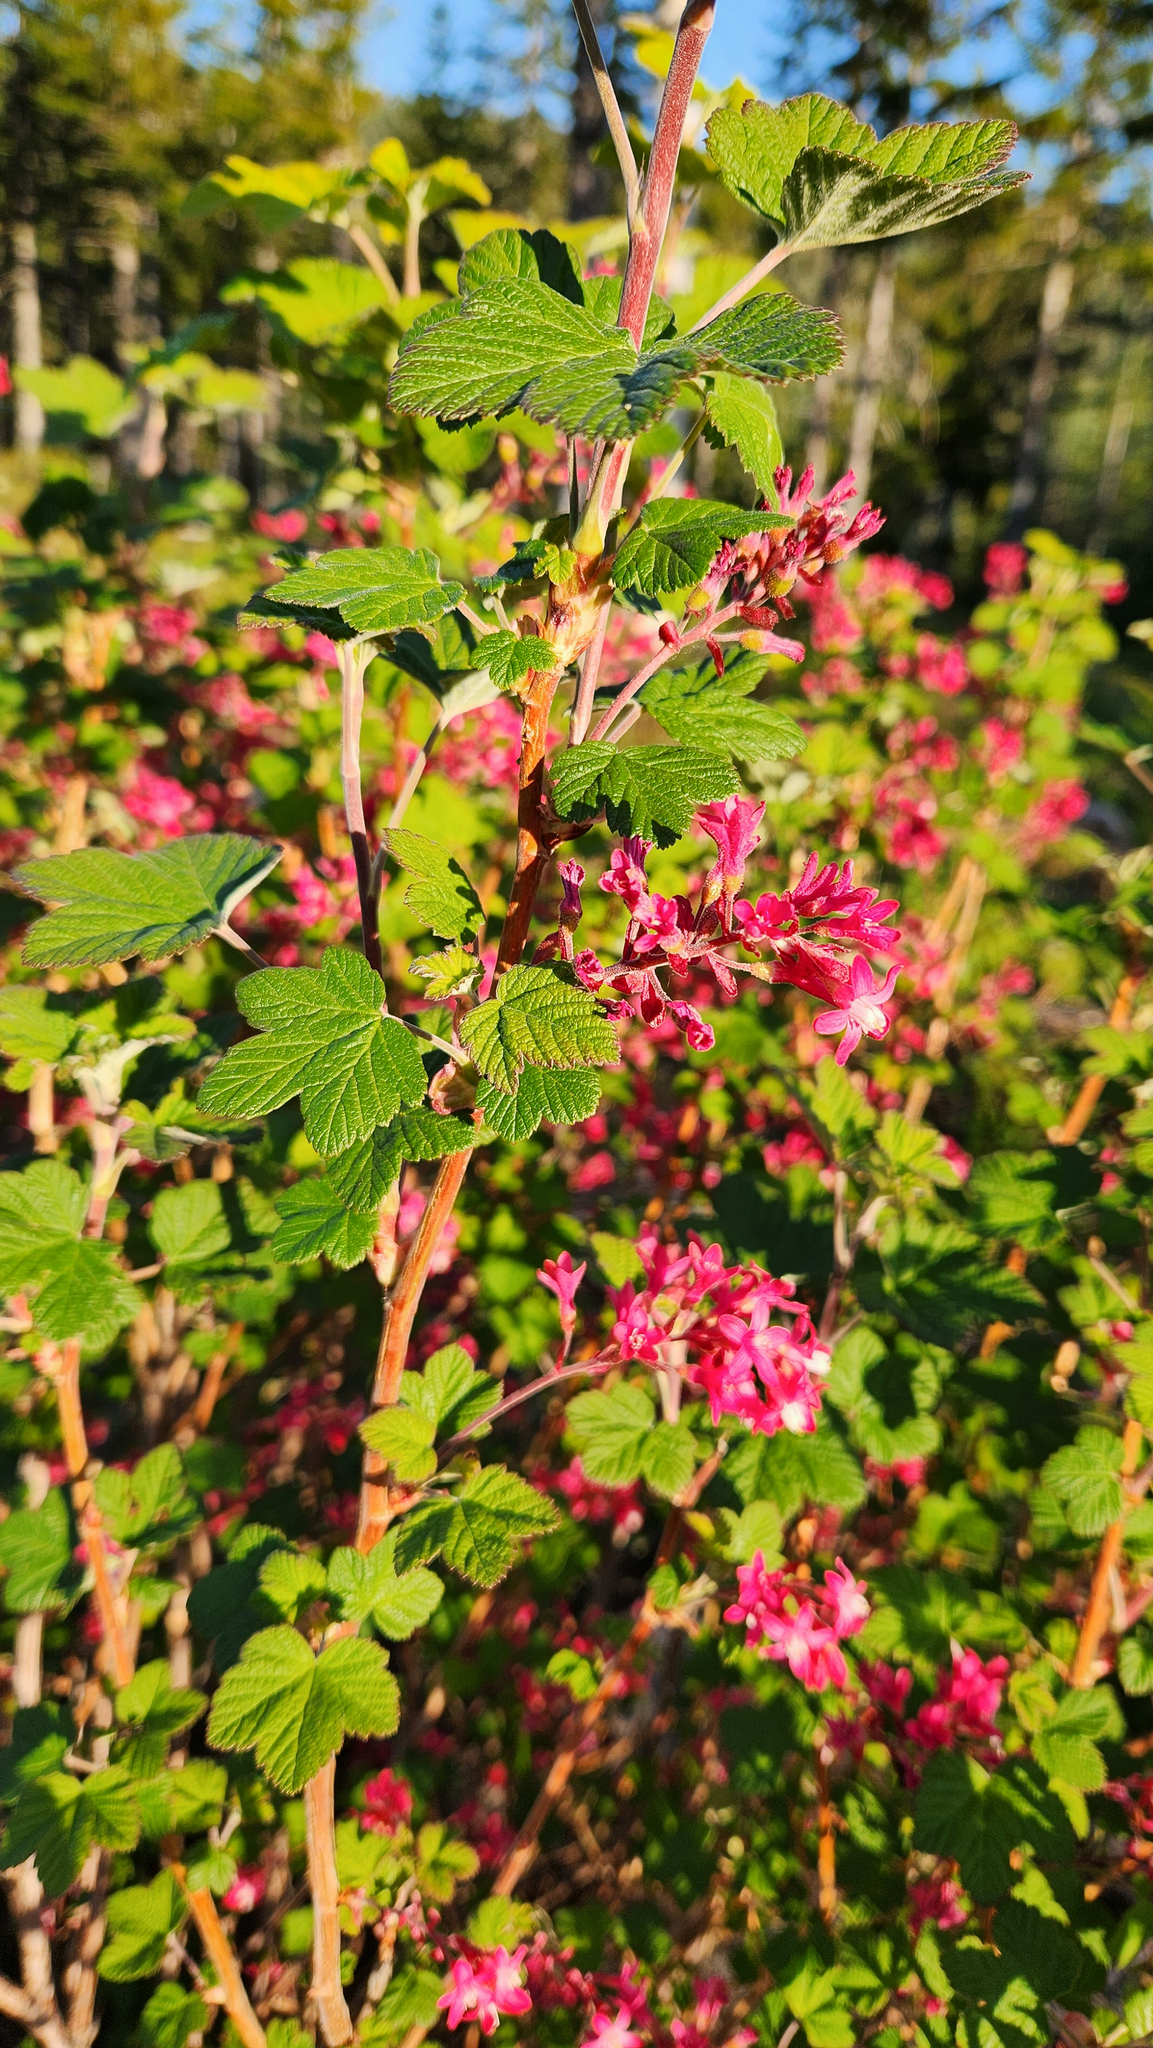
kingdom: Plantae
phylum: Tracheophyta
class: Magnoliopsida
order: Saxifragales
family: Grossulariaceae
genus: Ribes
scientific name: Ribes sanguineum
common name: Flowering currant
